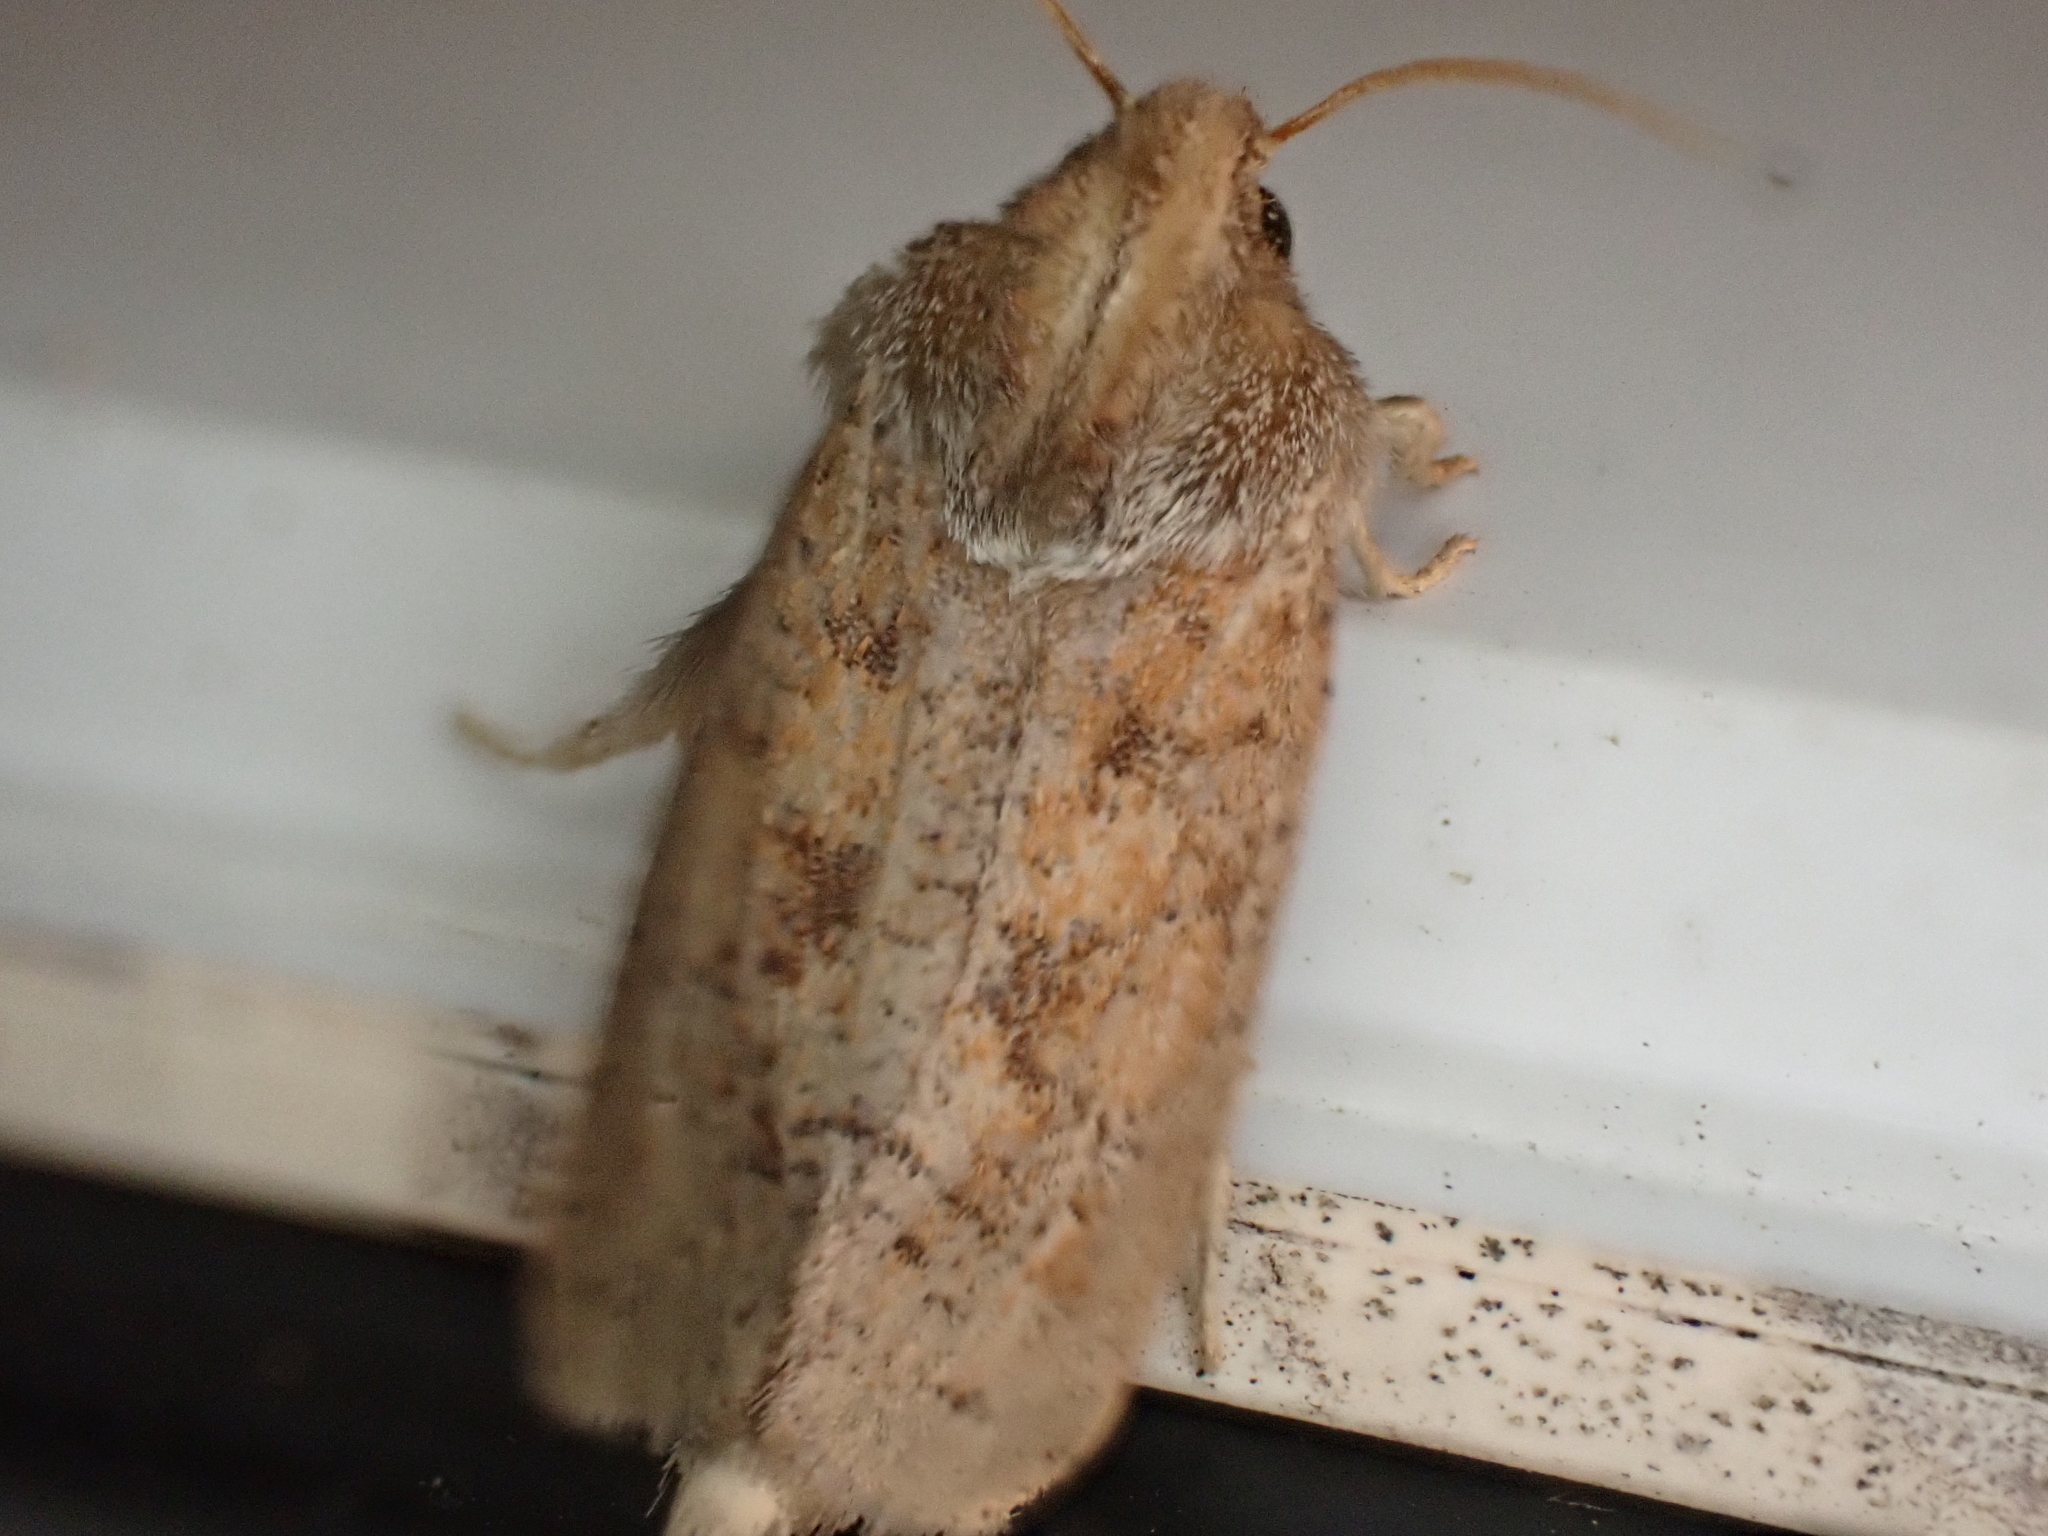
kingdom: Animalia
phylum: Arthropoda
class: Insecta
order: Lepidoptera
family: Tineidae
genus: Acrolophus
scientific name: Acrolophus plumifrontella
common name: Eastern grass tubeworm moth
